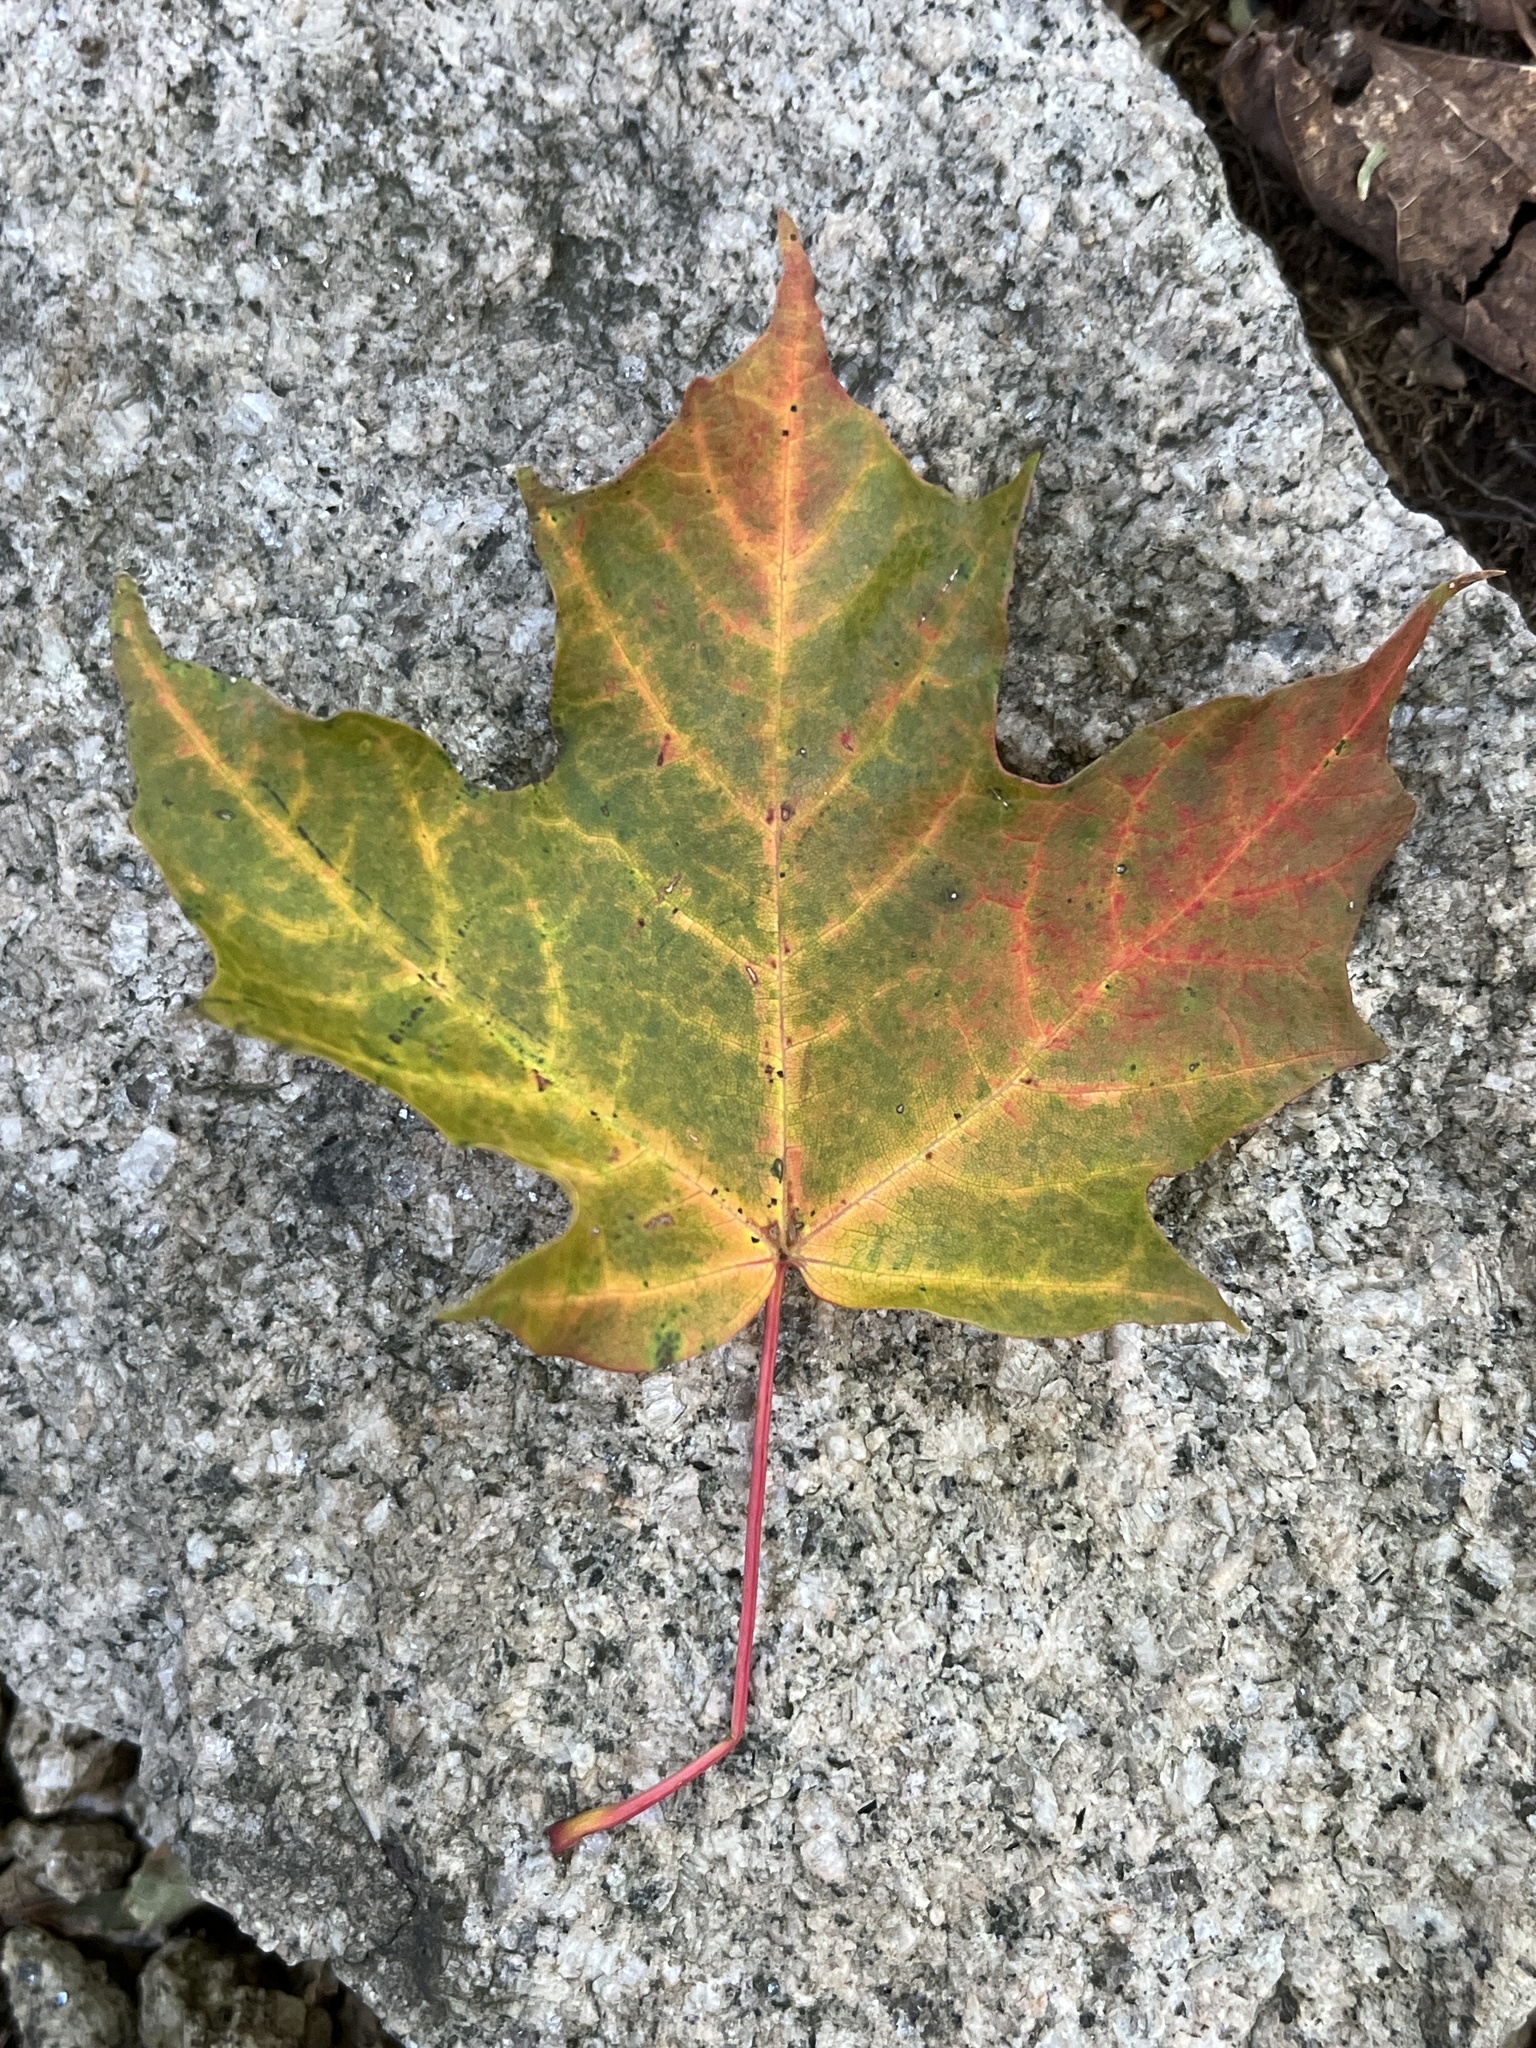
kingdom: Plantae
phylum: Tracheophyta
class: Magnoliopsida
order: Sapindales
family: Sapindaceae
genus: Acer
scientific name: Acer saccharum
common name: Sugar maple
